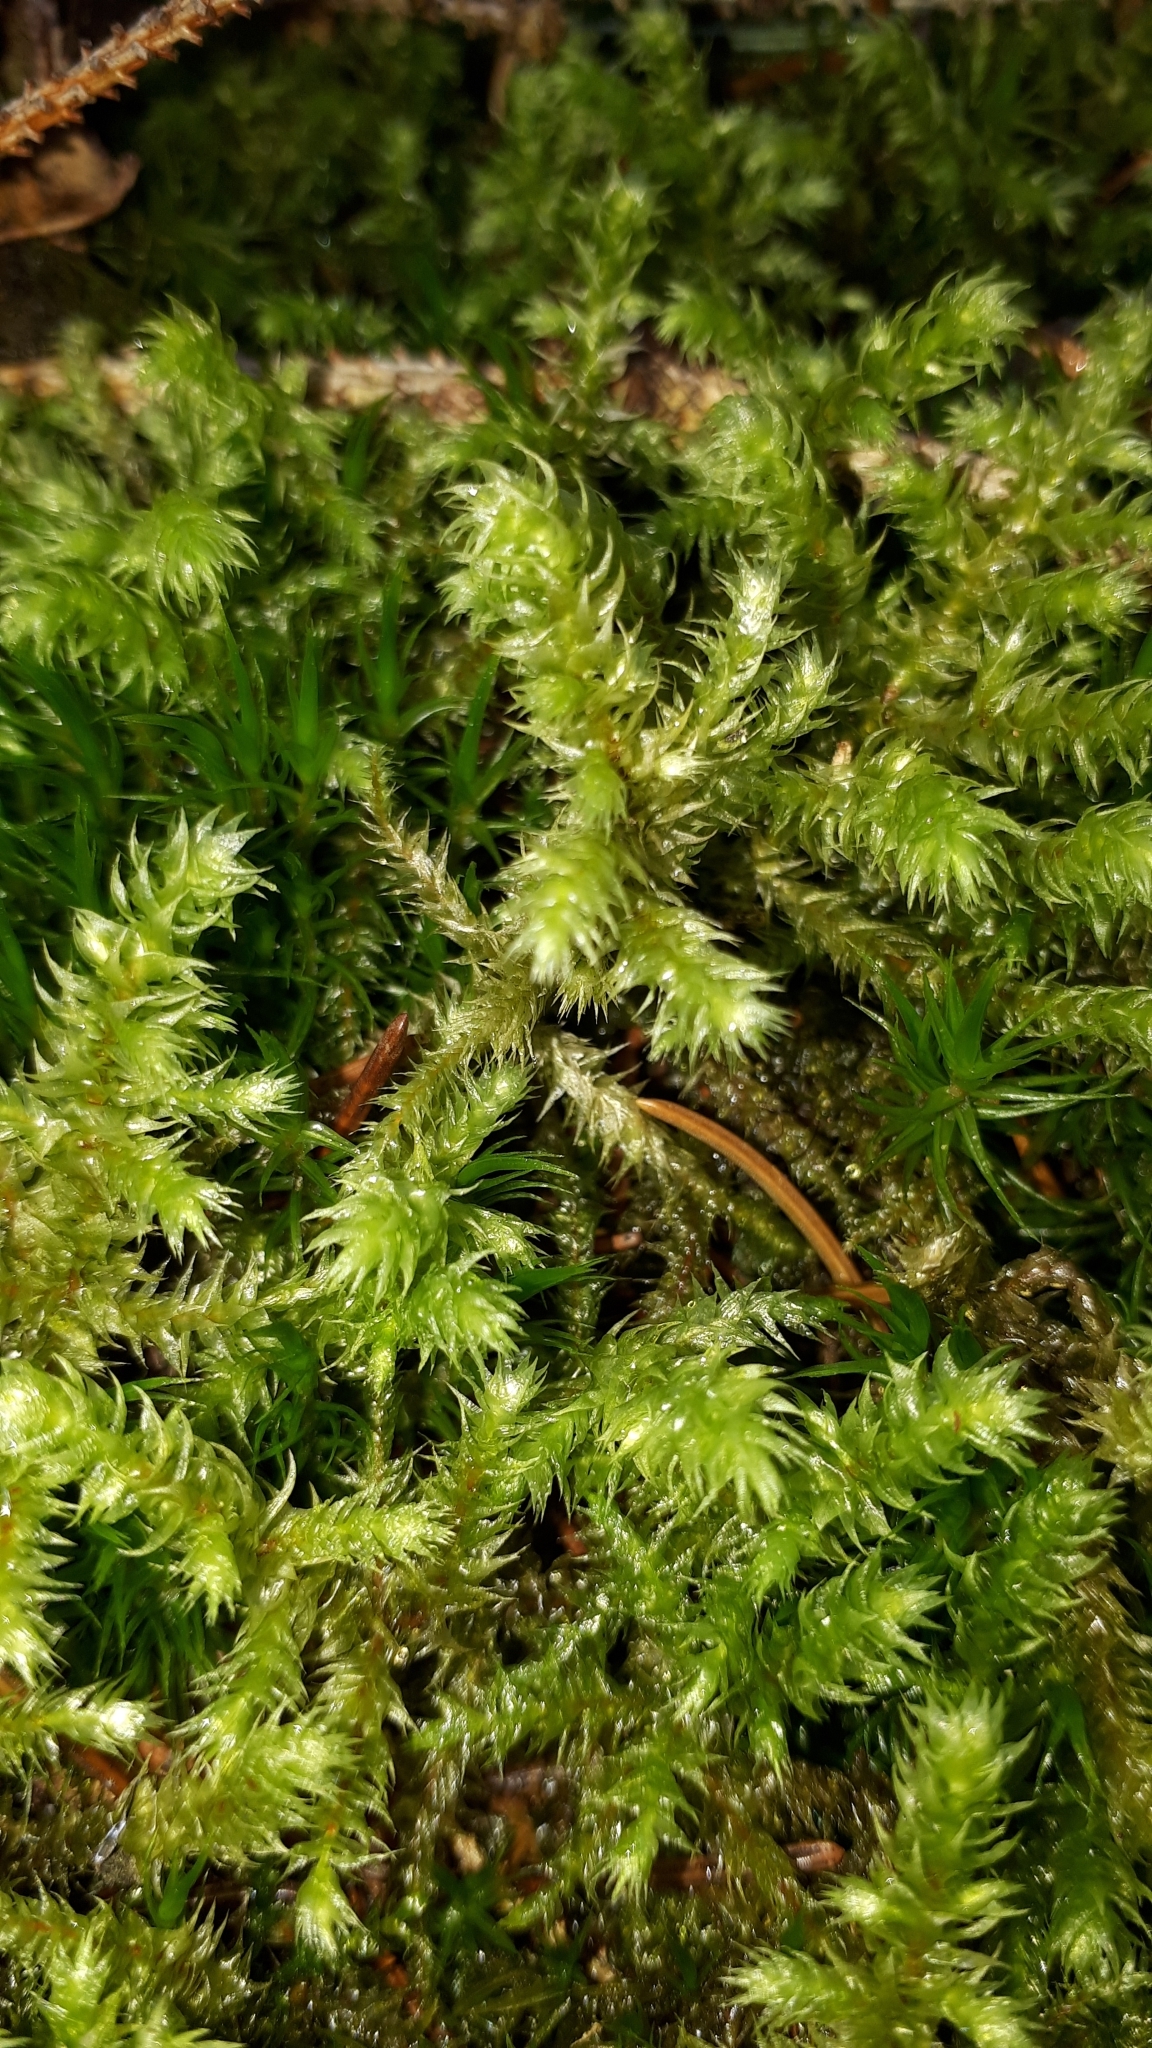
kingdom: Plantae
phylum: Bryophyta
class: Bryopsida
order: Hypnales
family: Hylocomiaceae
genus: Hylocomiadelphus
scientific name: Hylocomiadelphus triquetrus
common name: Rough goose neck moss
